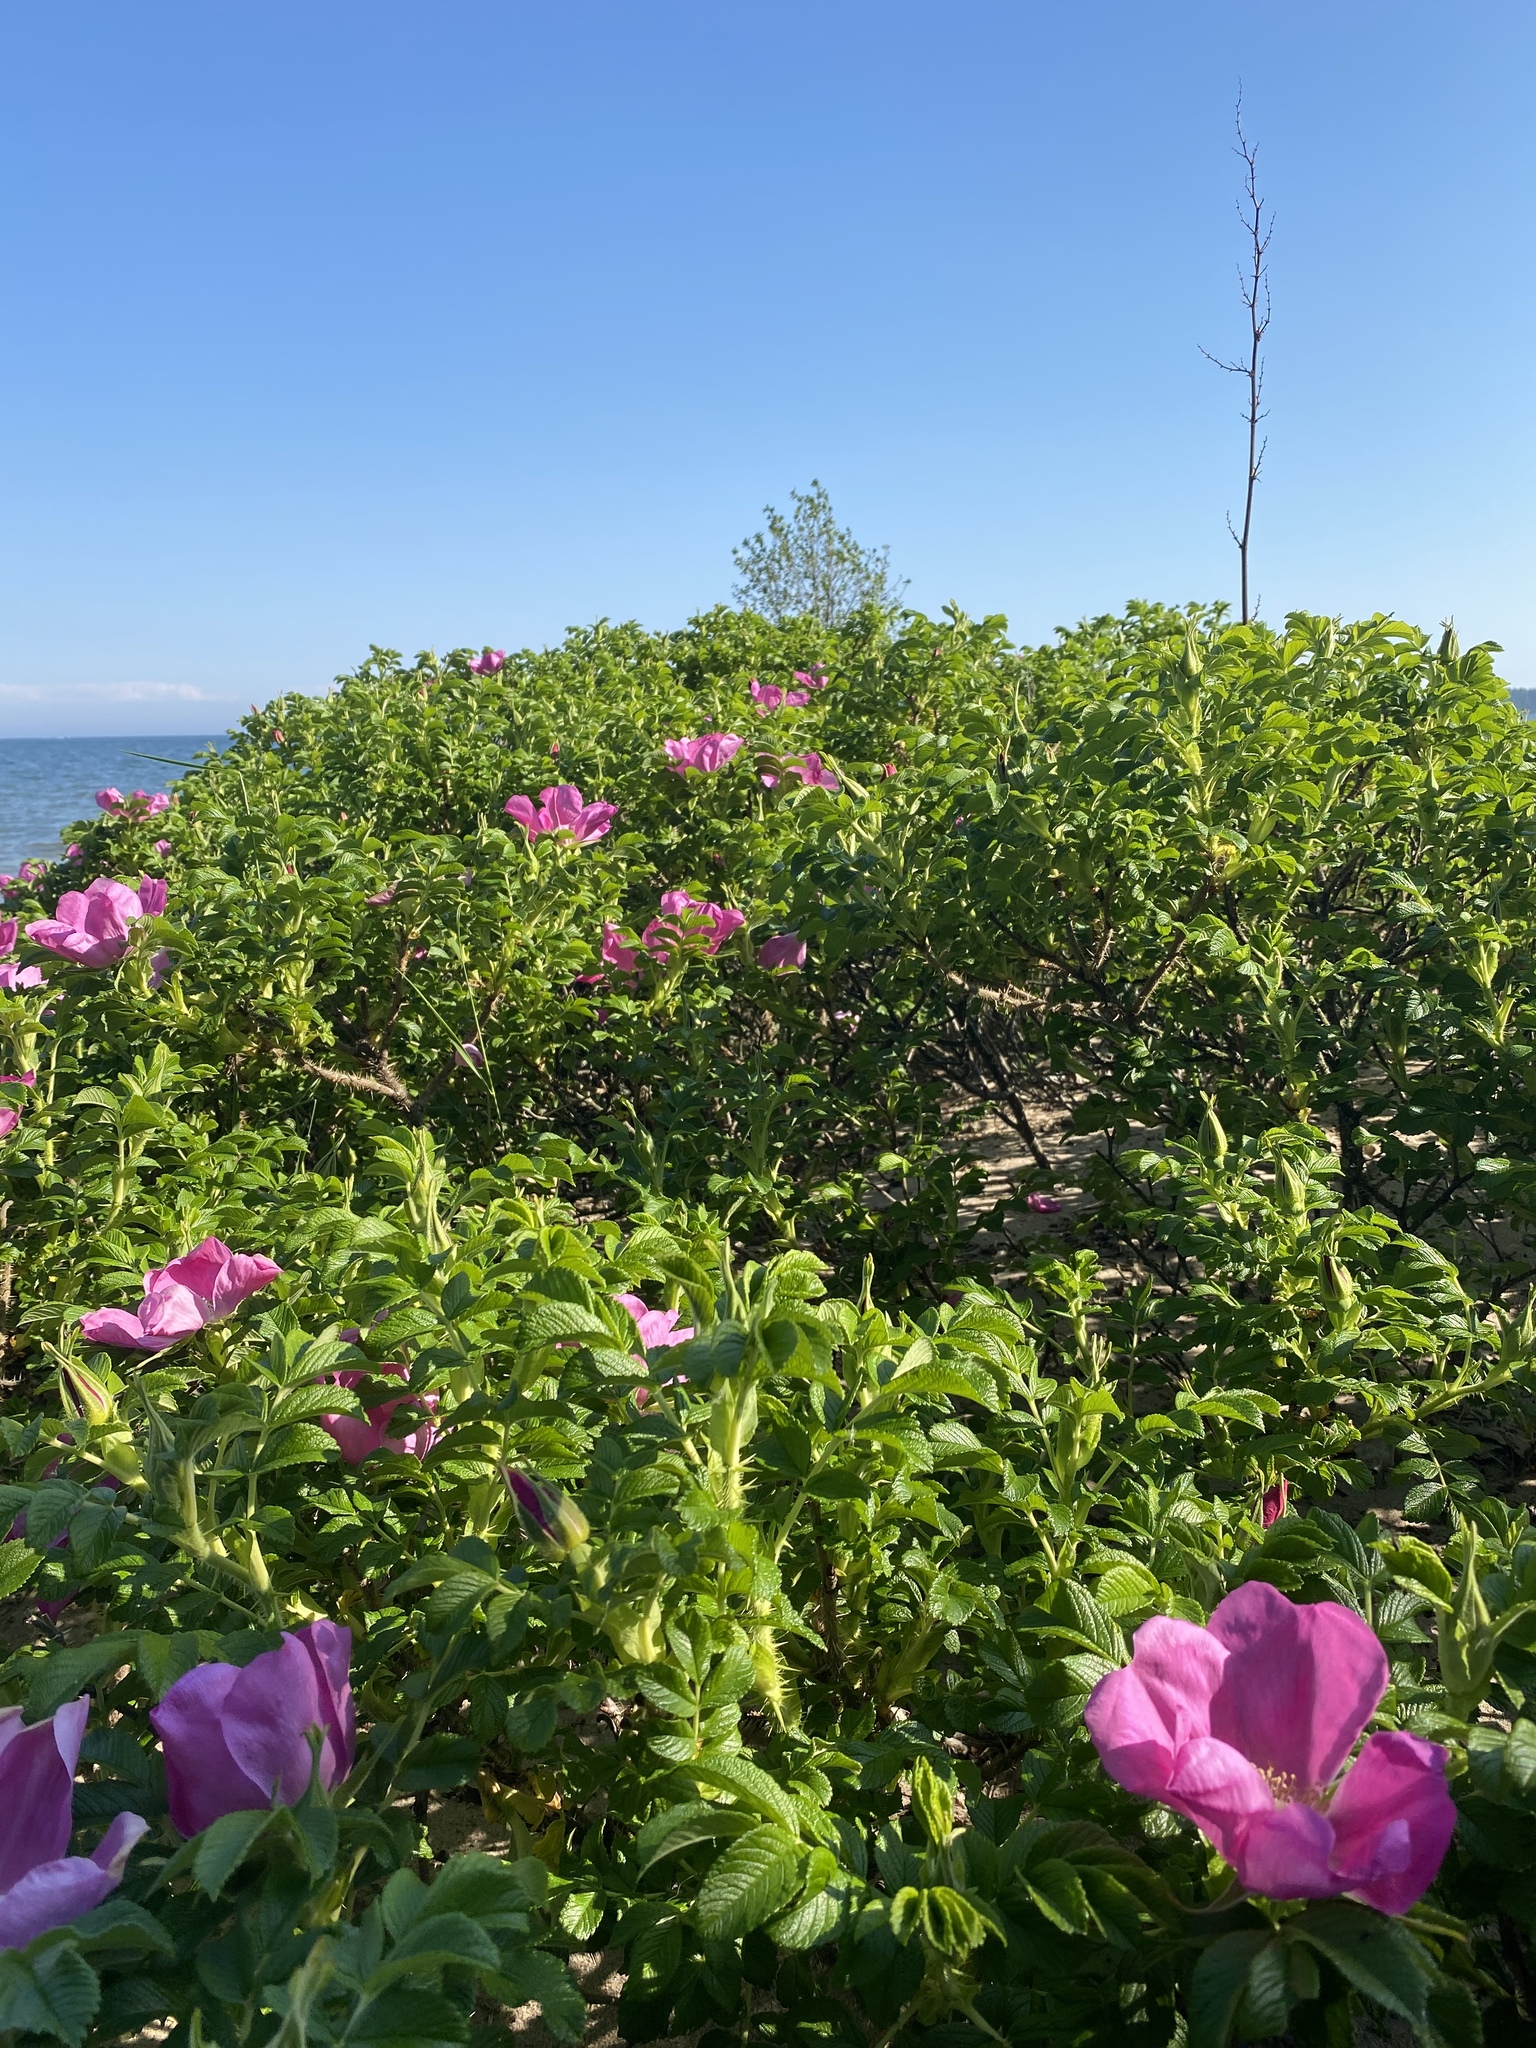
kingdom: Plantae
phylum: Tracheophyta
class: Magnoliopsida
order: Rosales
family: Rosaceae
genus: Rosa
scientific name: Rosa rugosa
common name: Japanese rose
